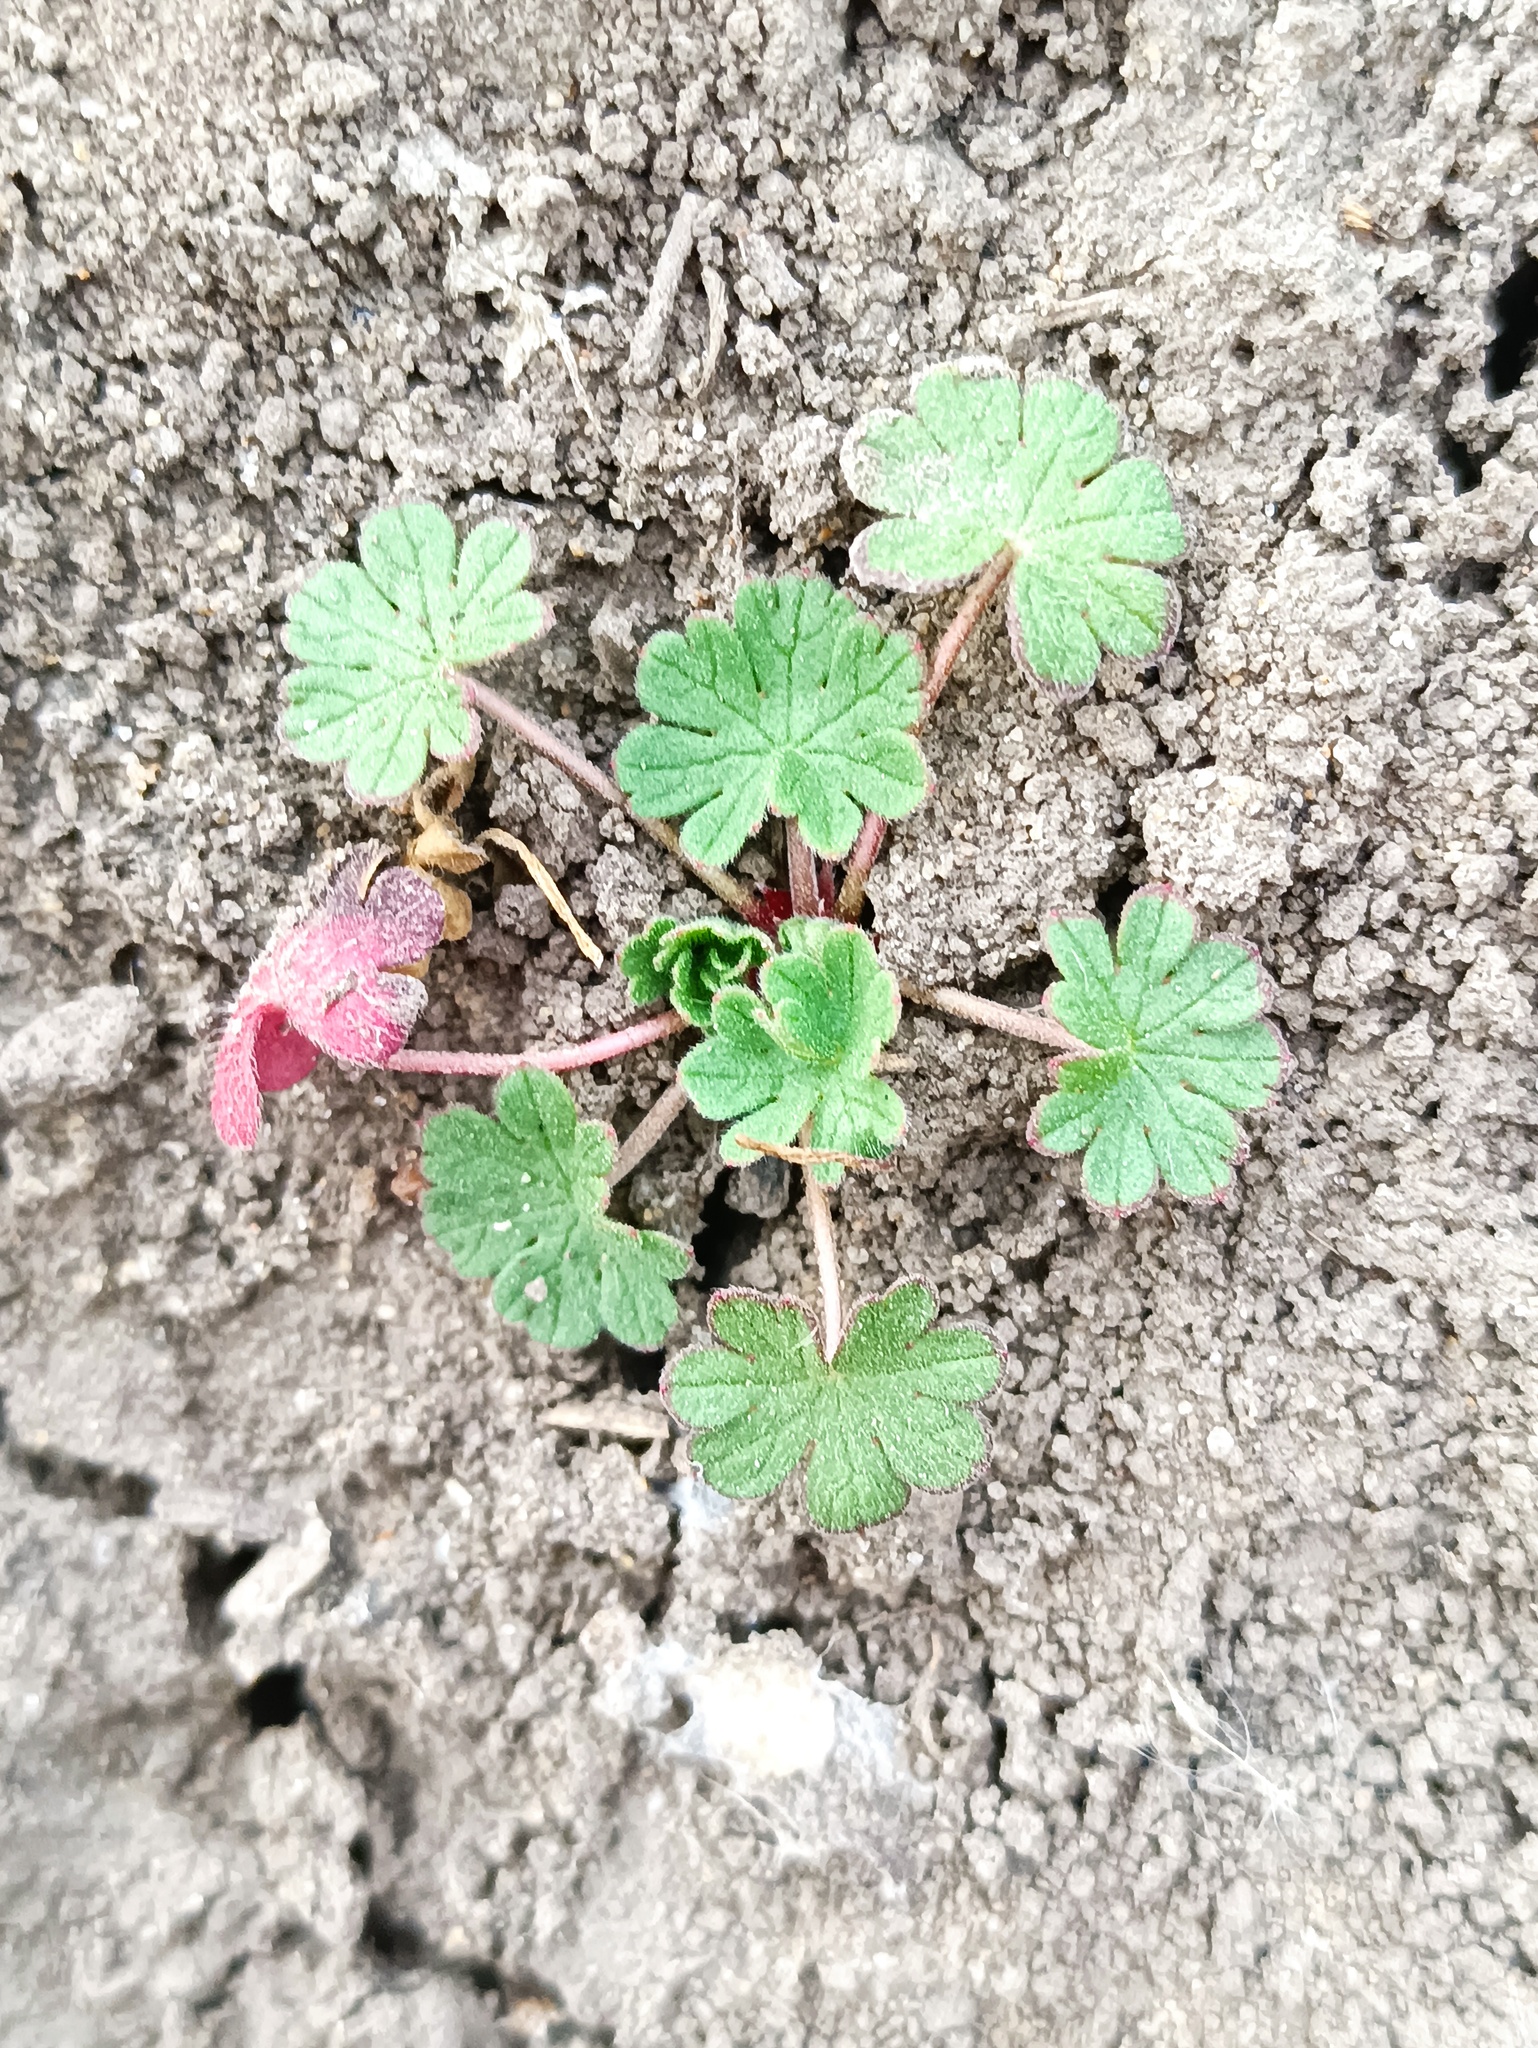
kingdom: Plantae
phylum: Tracheophyta
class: Magnoliopsida
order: Geraniales
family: Geraniaceae
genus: Geranium
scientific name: Geranium pusillum
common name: Small geranium
